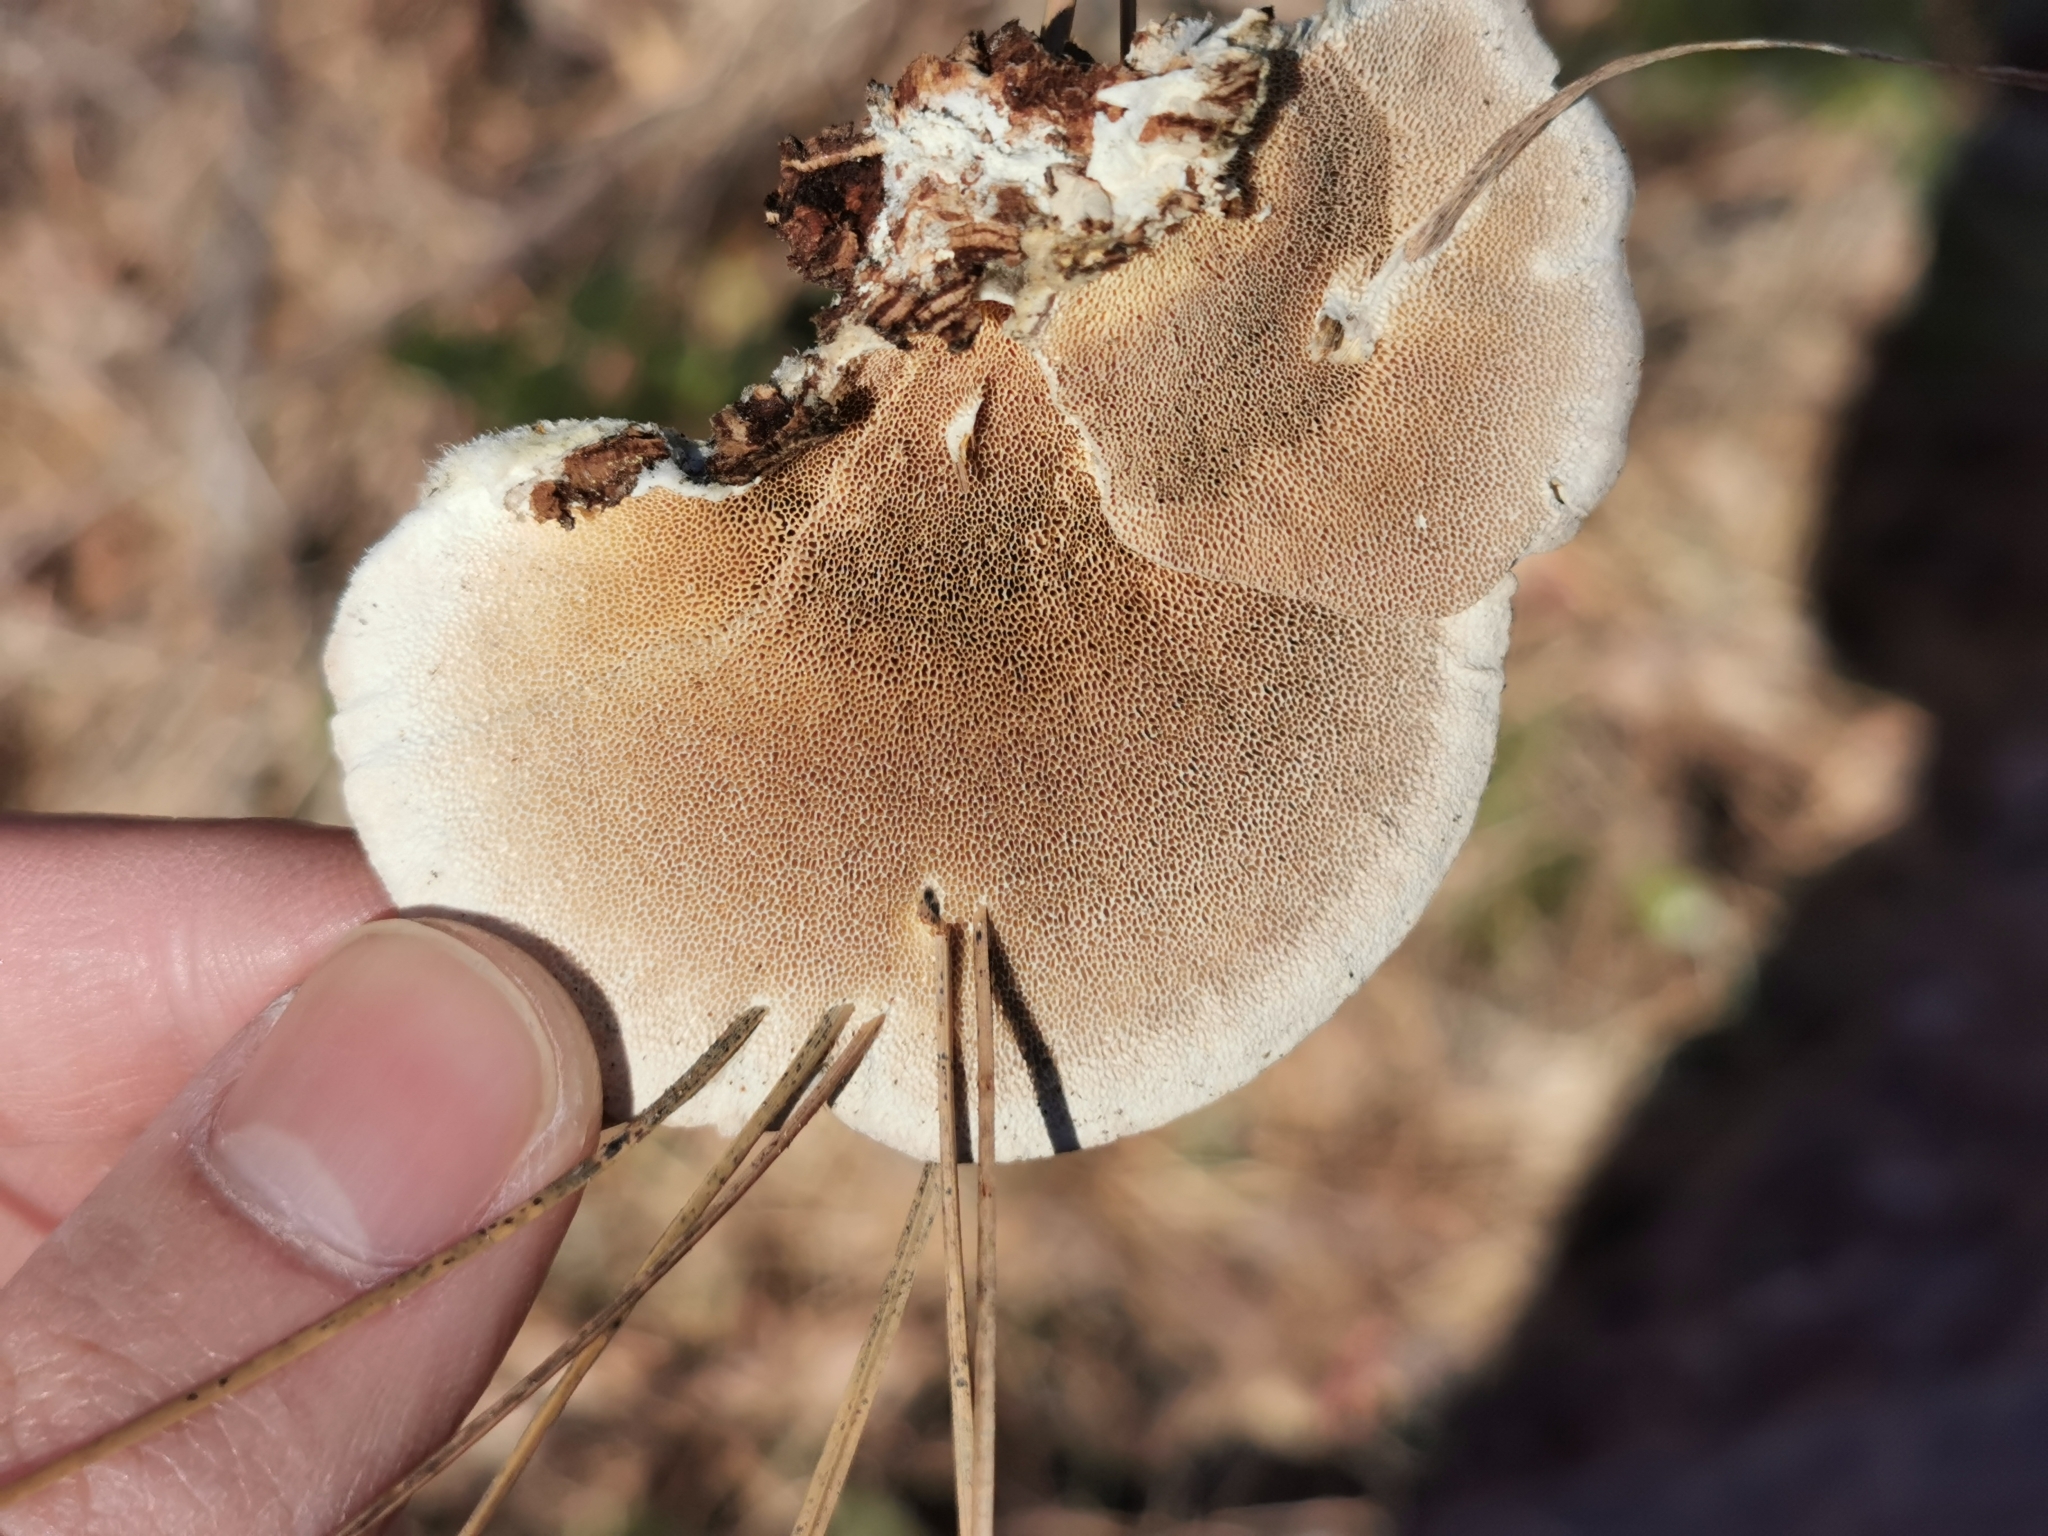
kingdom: Fungi
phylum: Basidiomycota
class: Agaricomycetes
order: Polyporales
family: Polyporaceae
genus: Trametes
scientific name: Trametes hirsuta
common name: Hairy bracket
